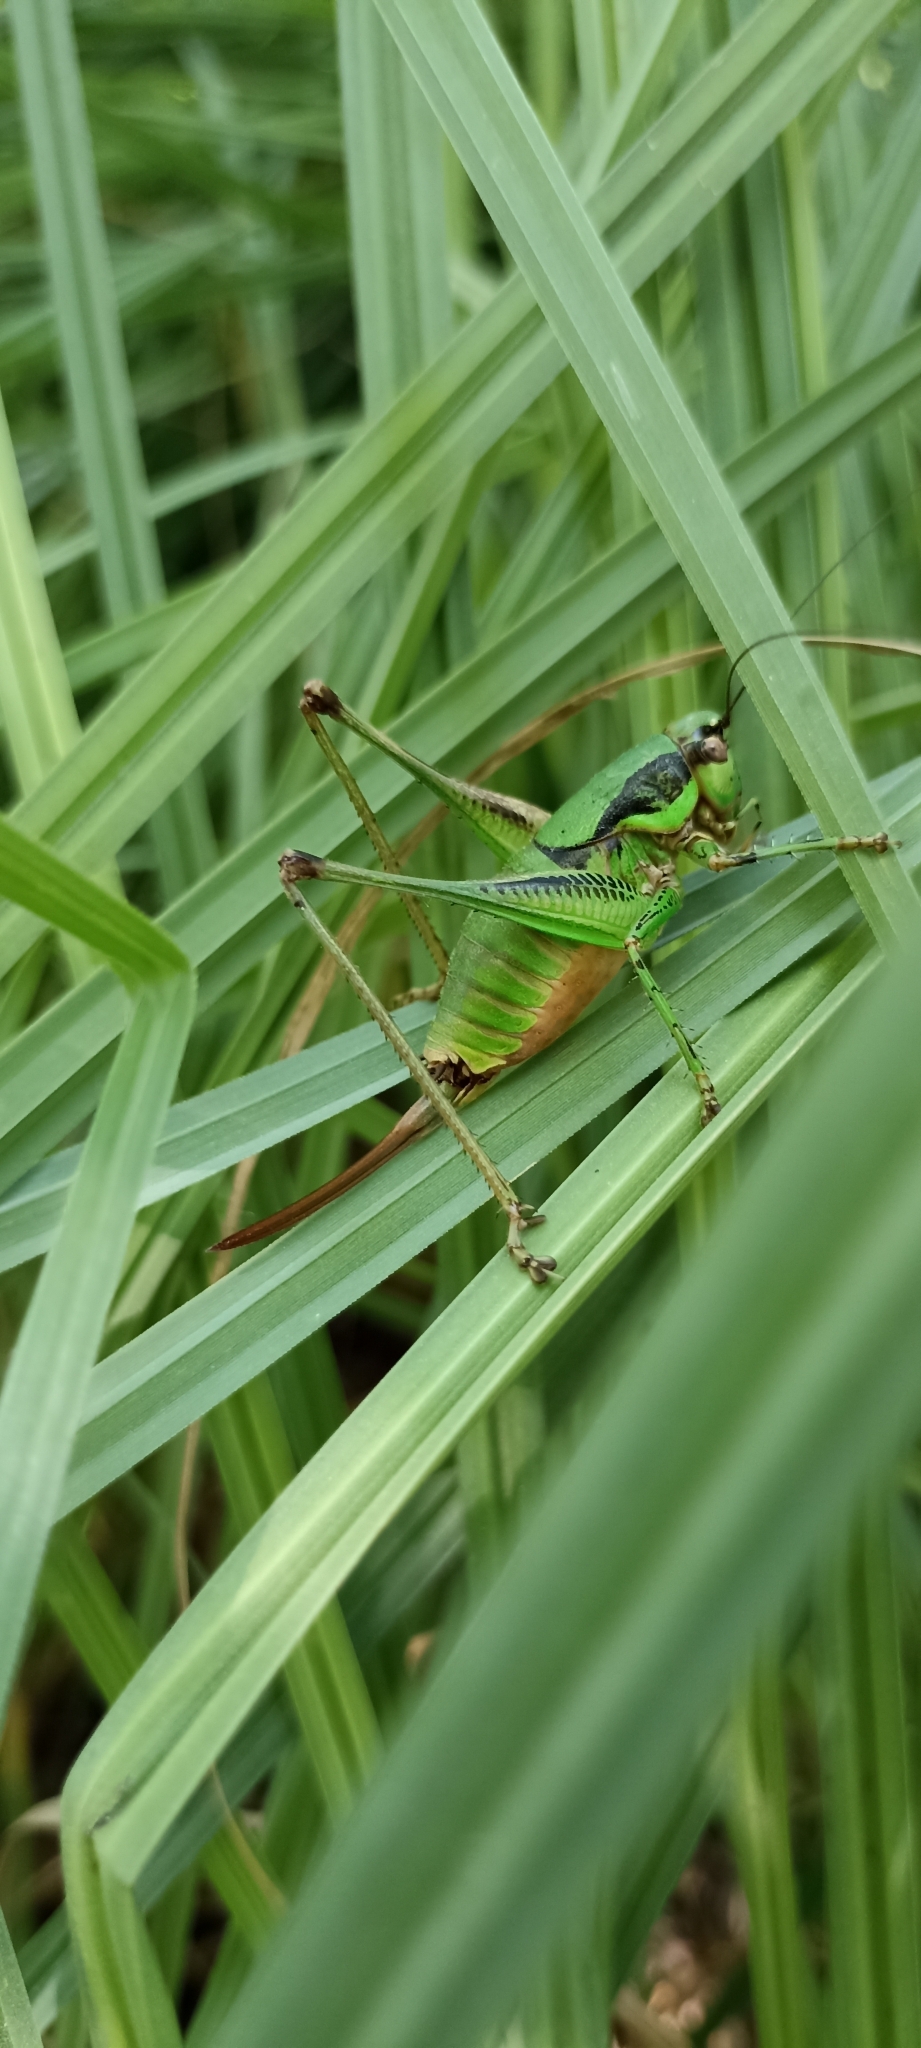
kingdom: Animalia
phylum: Arthropoda
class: Insecta
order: Orthoptera
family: Tettigoniidae
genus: Eupholidoptera
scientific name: Eupholidoptera schmidti
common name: Schmidt's marbled bush-cricket
